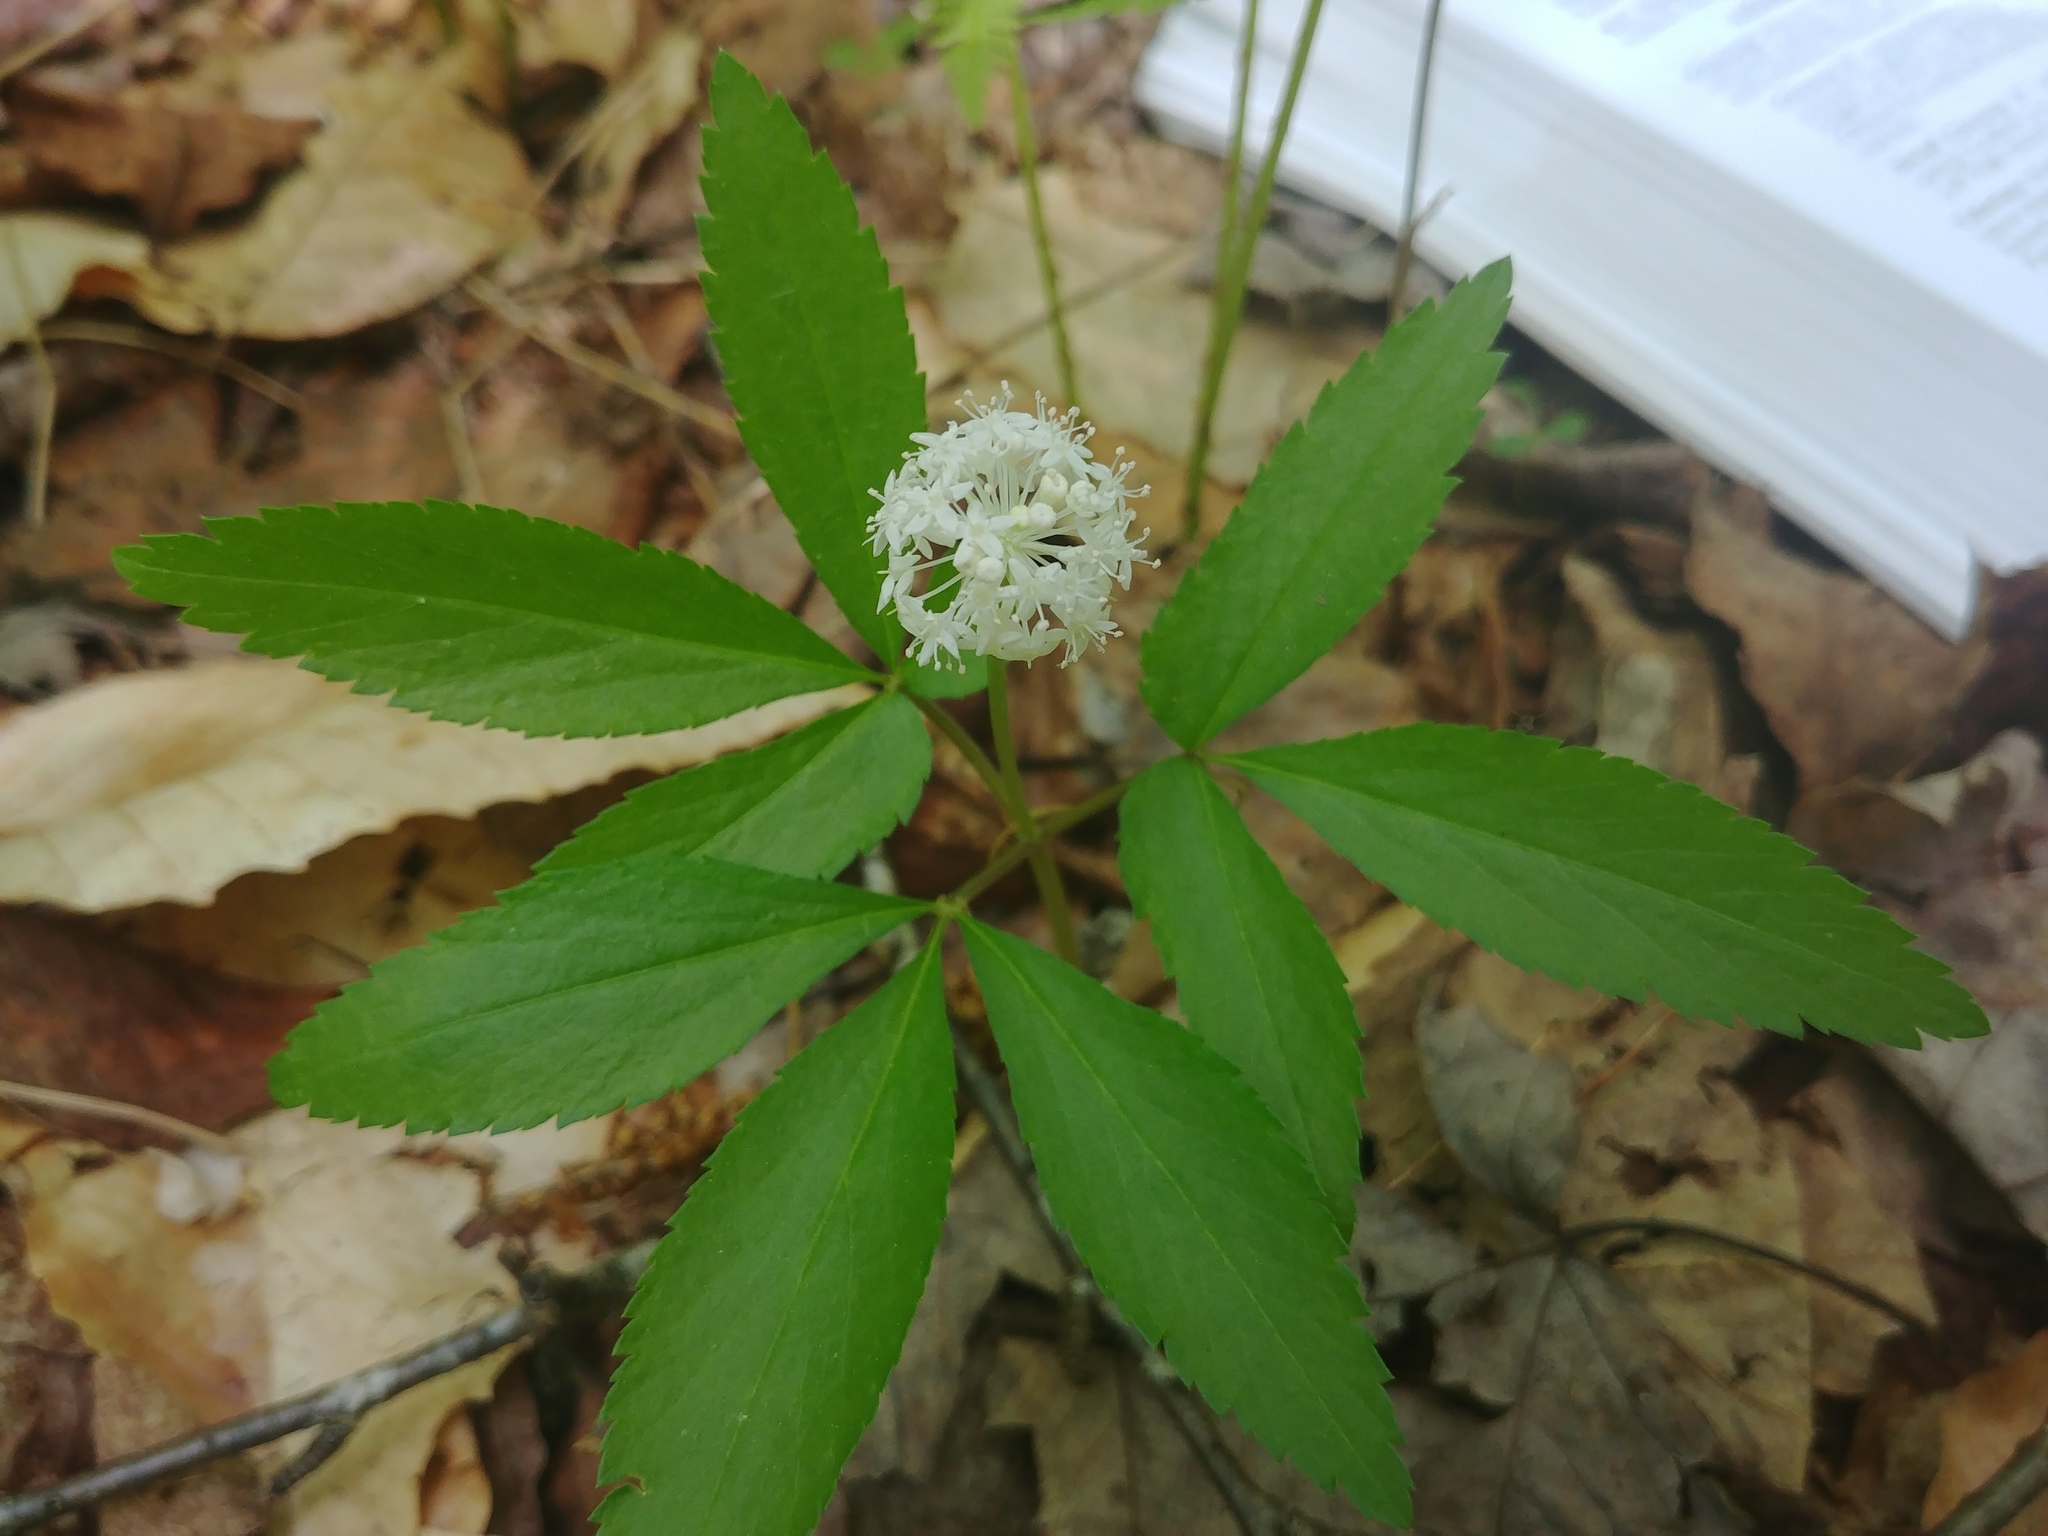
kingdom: Plantae
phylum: Tracheophyta
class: Magnoliopsida
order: Apiales
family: Araliaceae
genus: Panax
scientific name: Panax trifolius
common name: Dwarf ginseng
